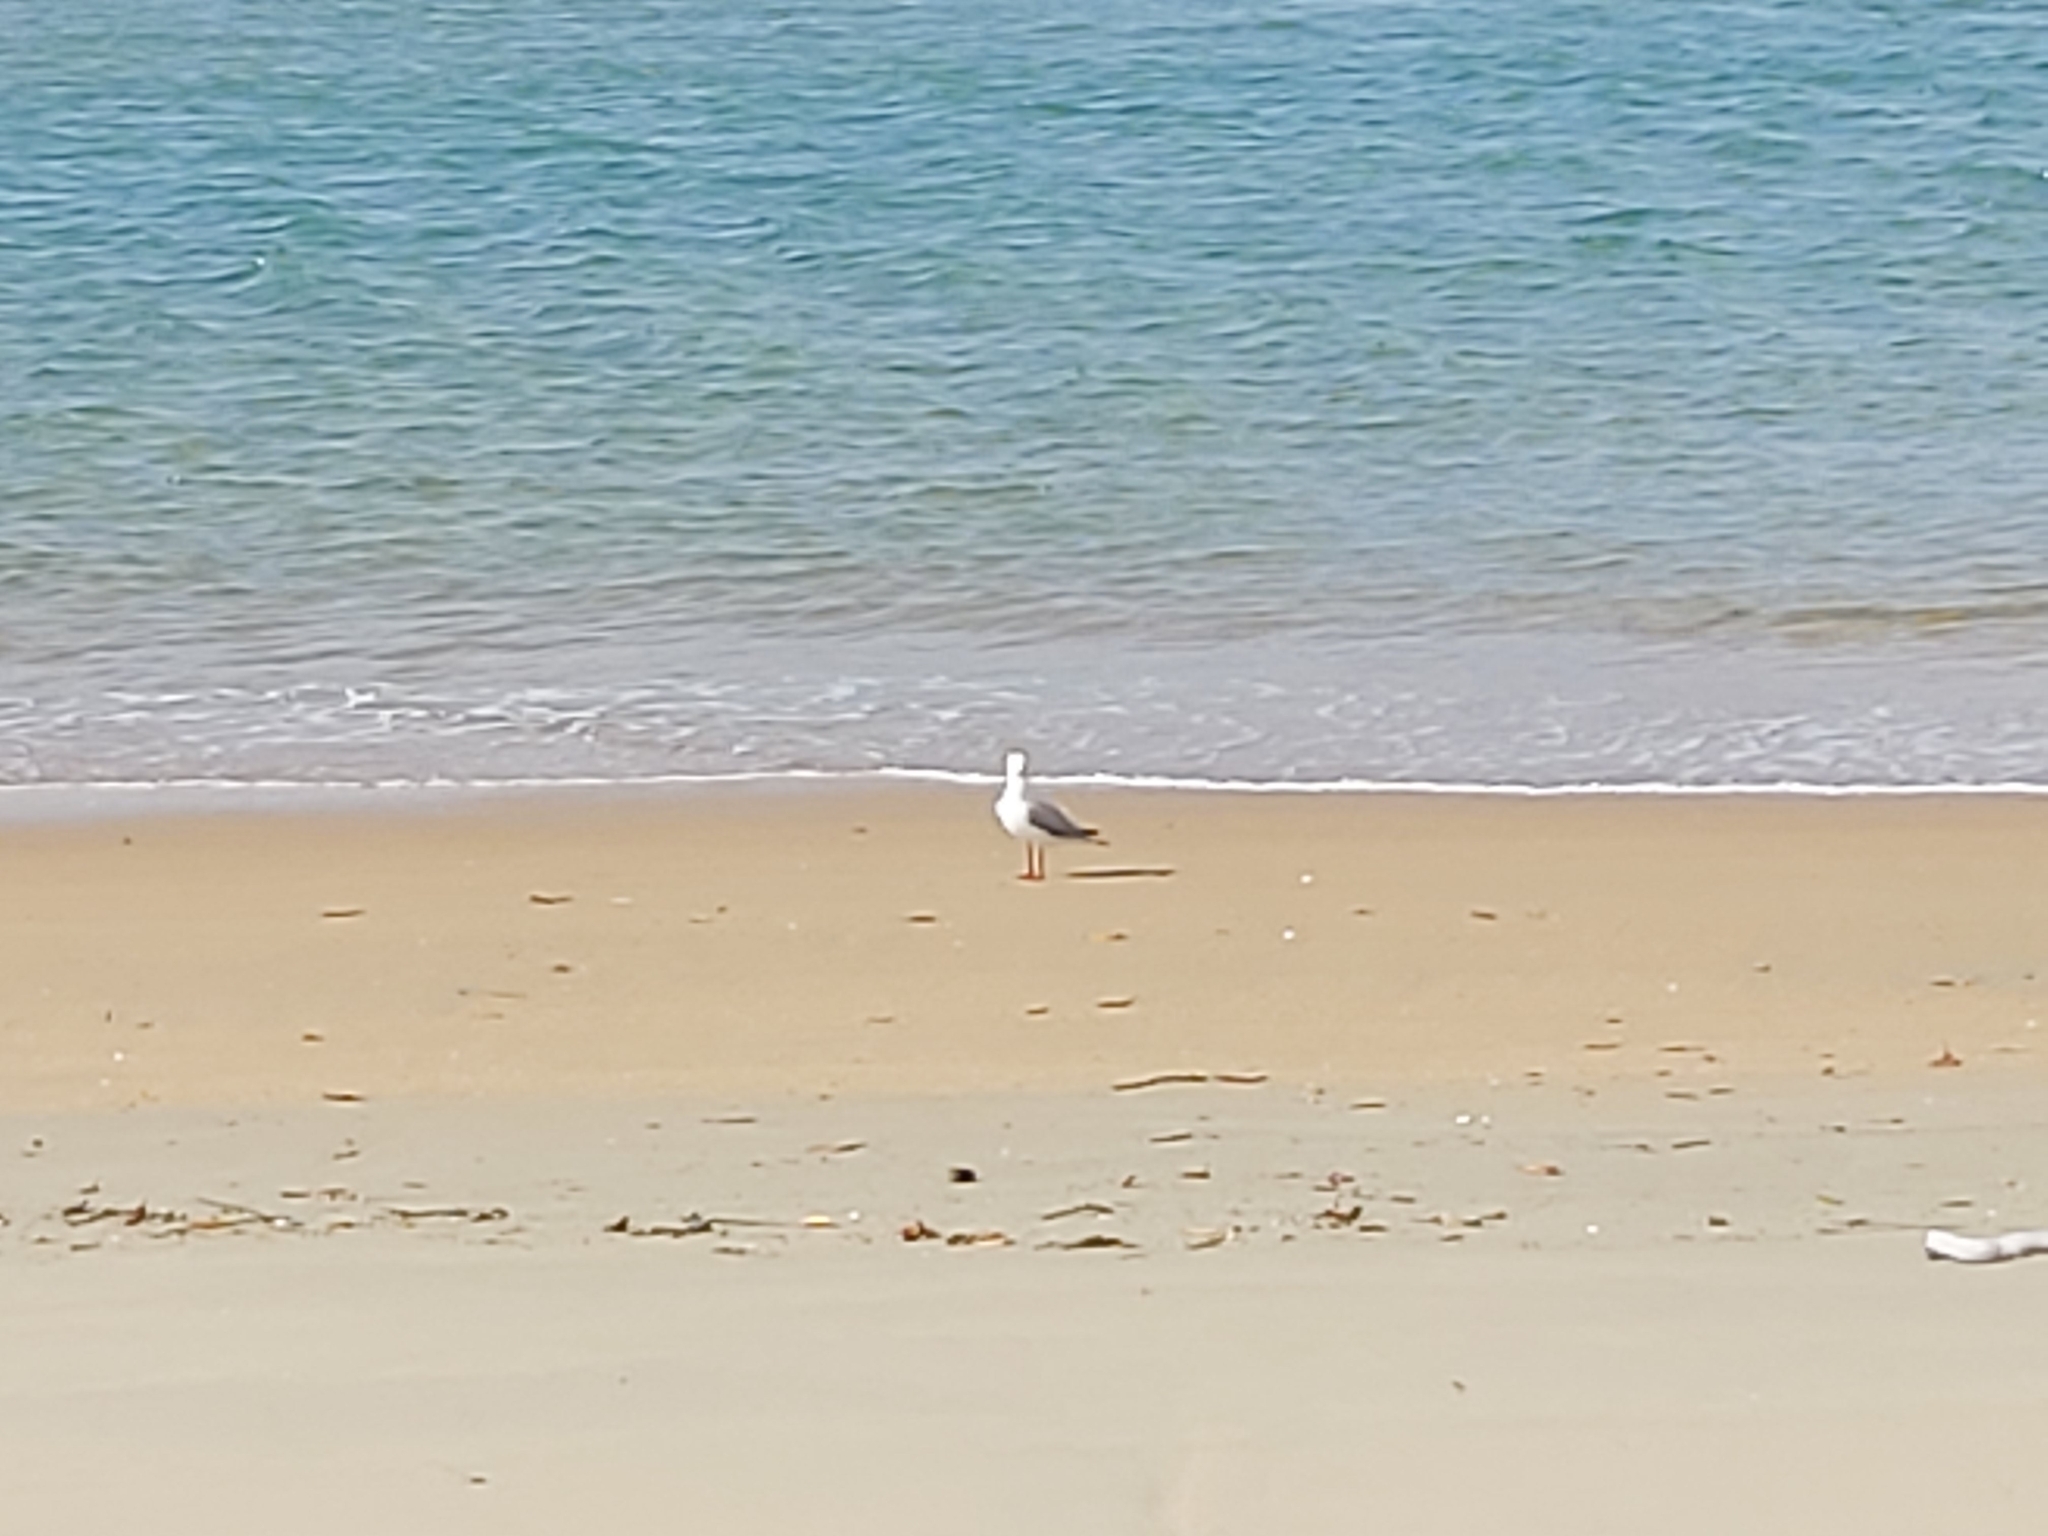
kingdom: Animalia
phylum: Chordata
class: Aves
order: Charadriiformes
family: Laridae
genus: Chroicocephalus
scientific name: Chroicocephalus novaehollandiae
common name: Silver gull
